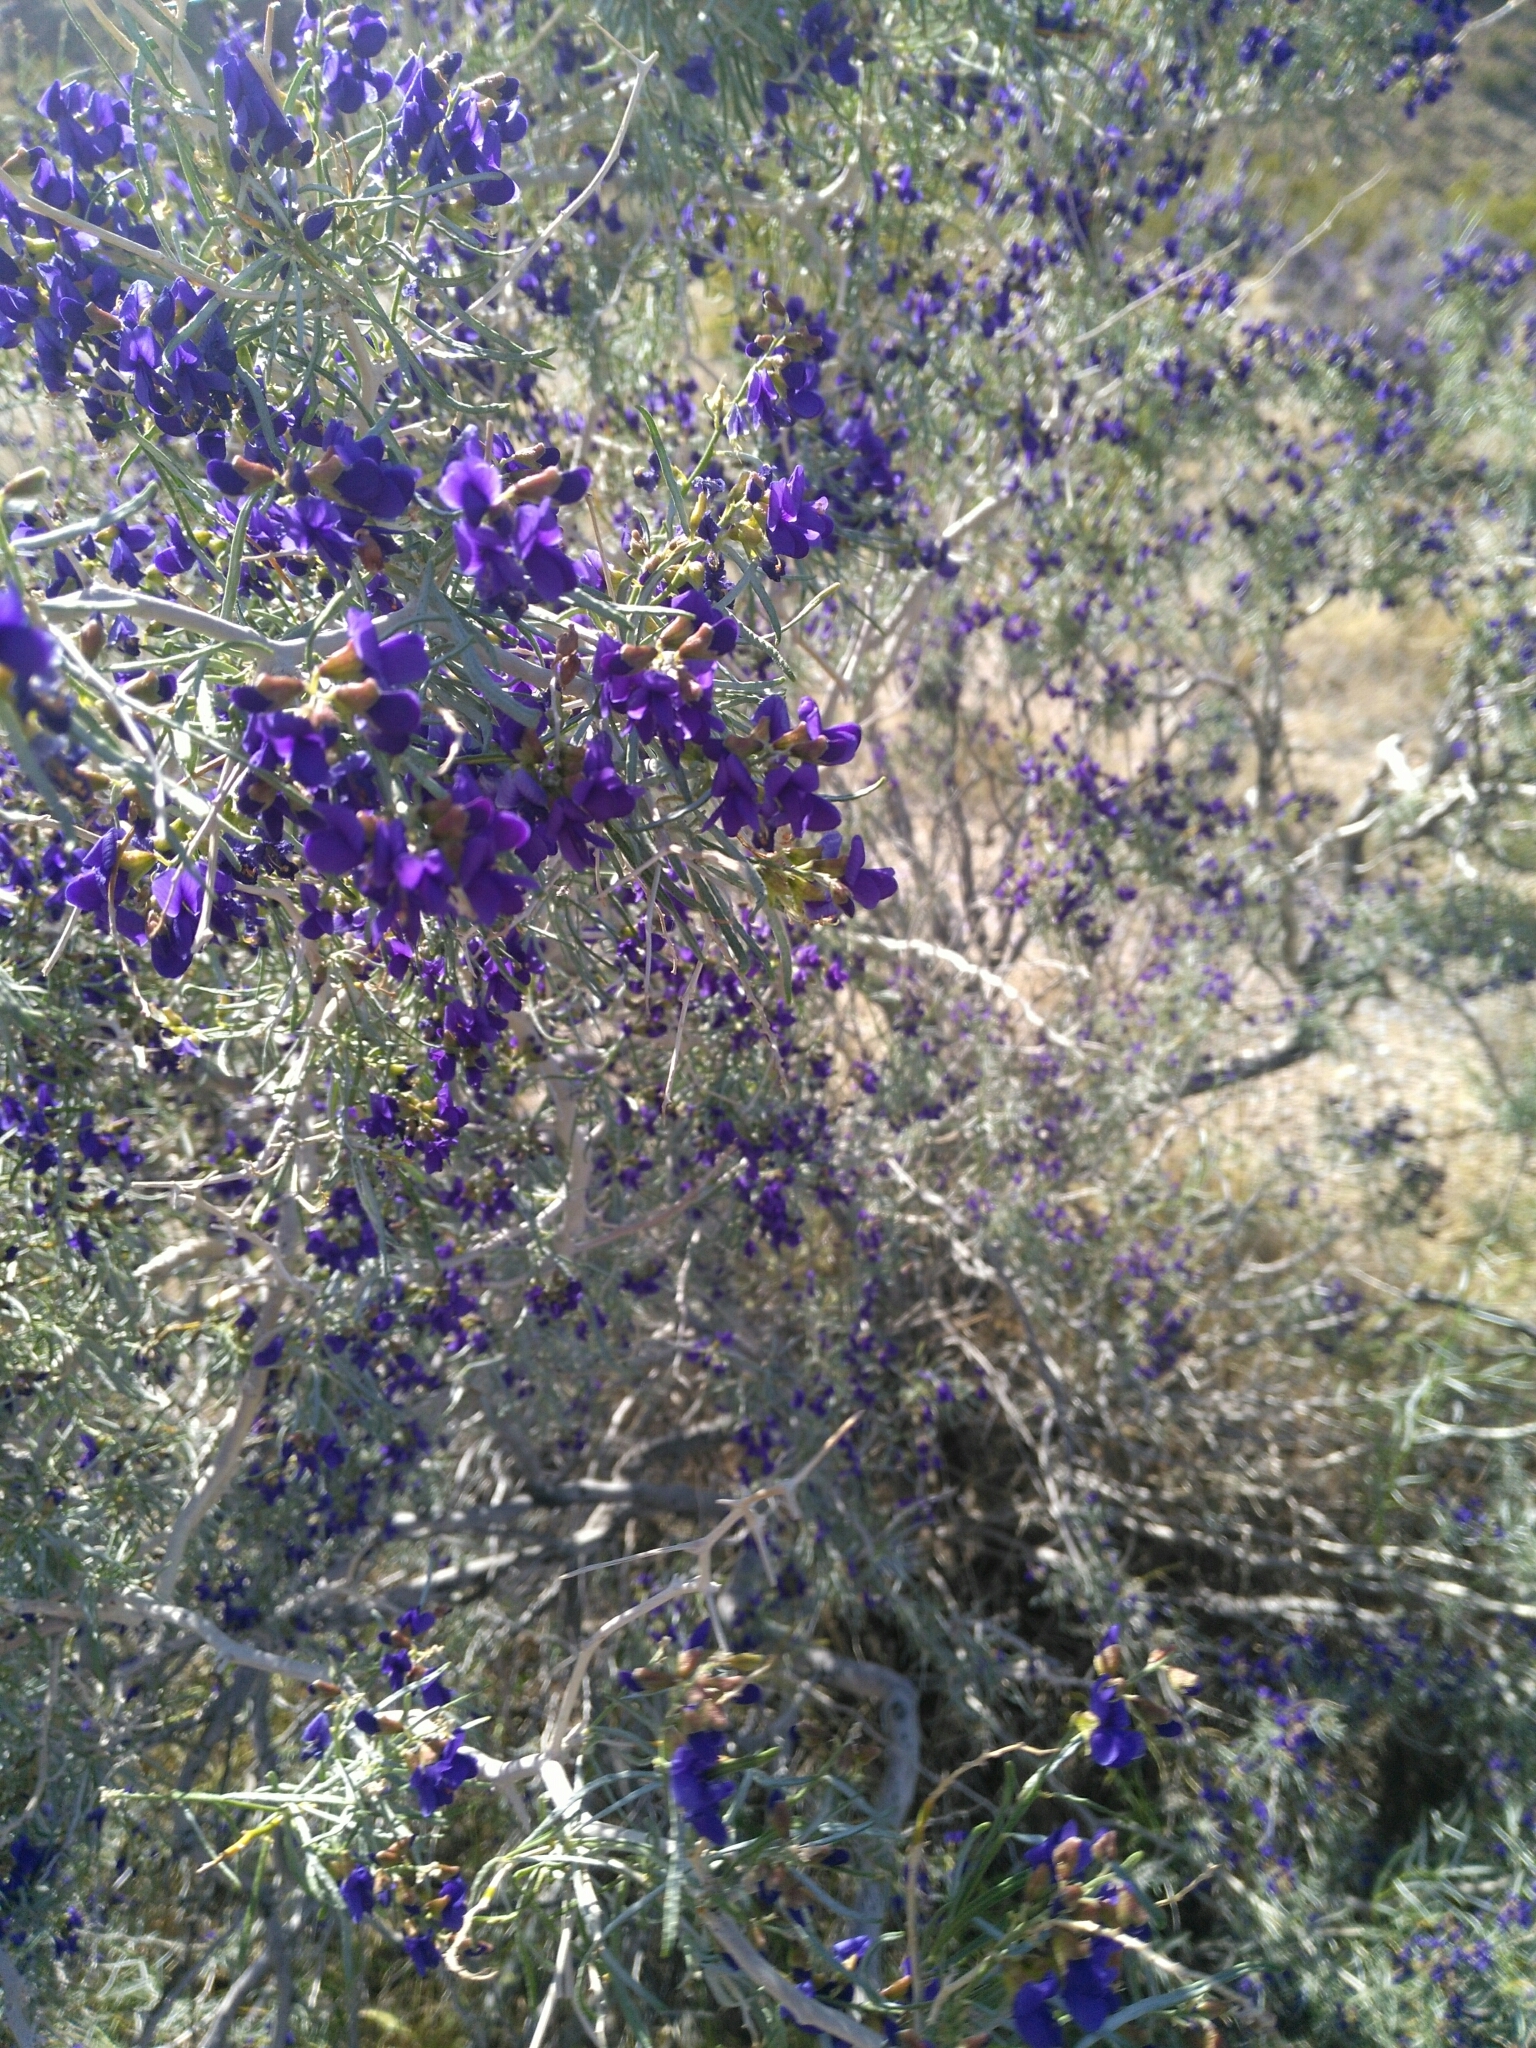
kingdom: Plantae
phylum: Tracheophyta
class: Magnoliopsida
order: Fabales
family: Fabaceae
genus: Psorothamnus
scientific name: Psorothamnus schottii
